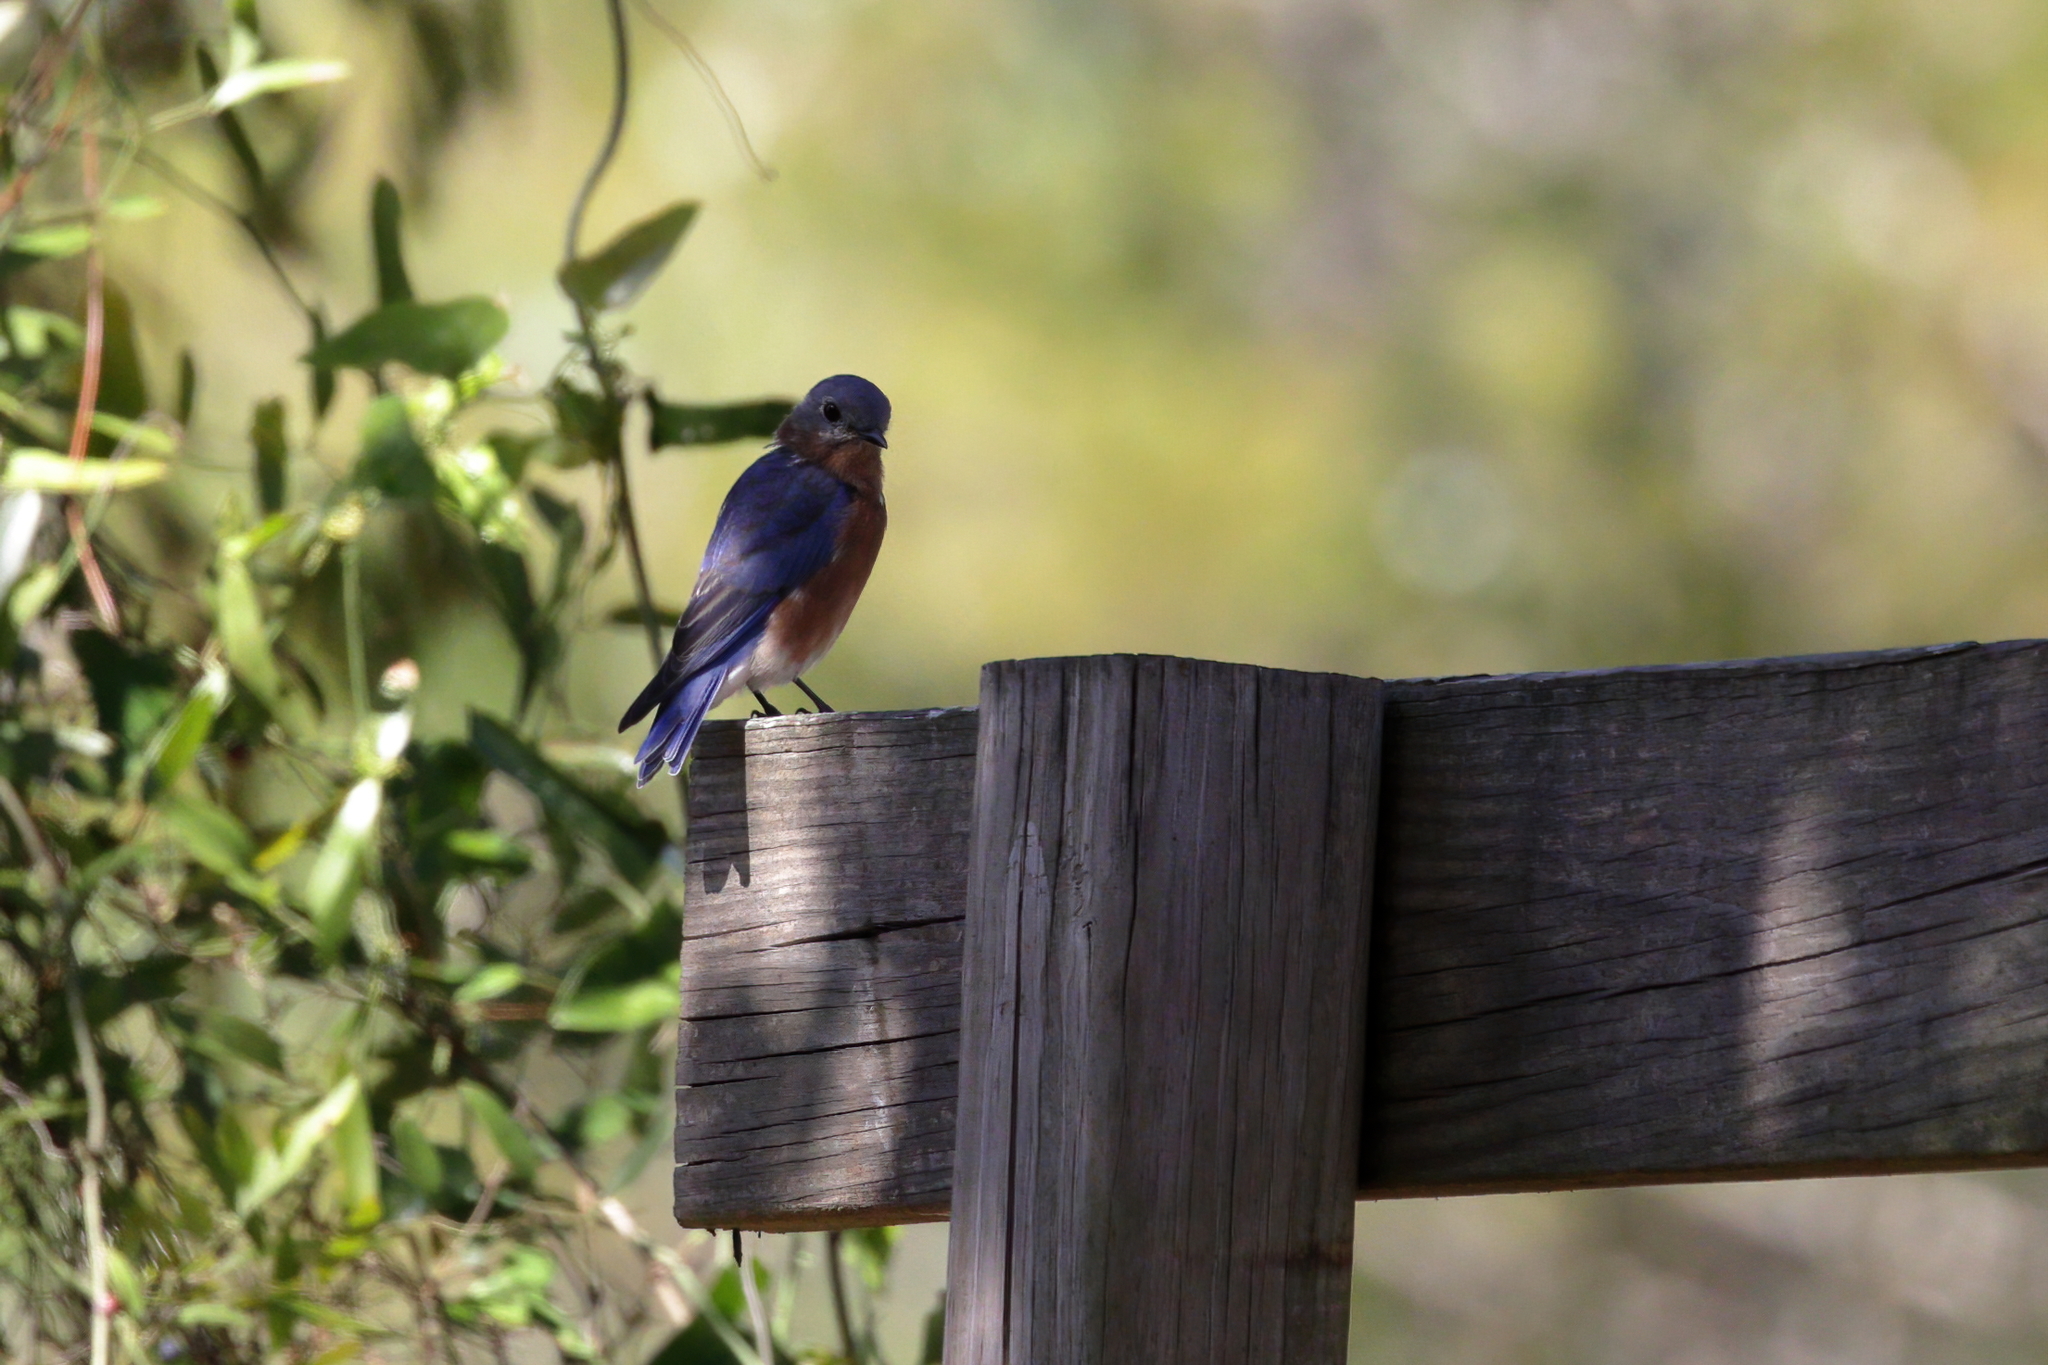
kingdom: Animalia
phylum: Chordata
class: Aves
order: Passeriformes
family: Turdidae
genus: Sialia
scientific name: Sialia sialis
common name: Eastern bluebird
